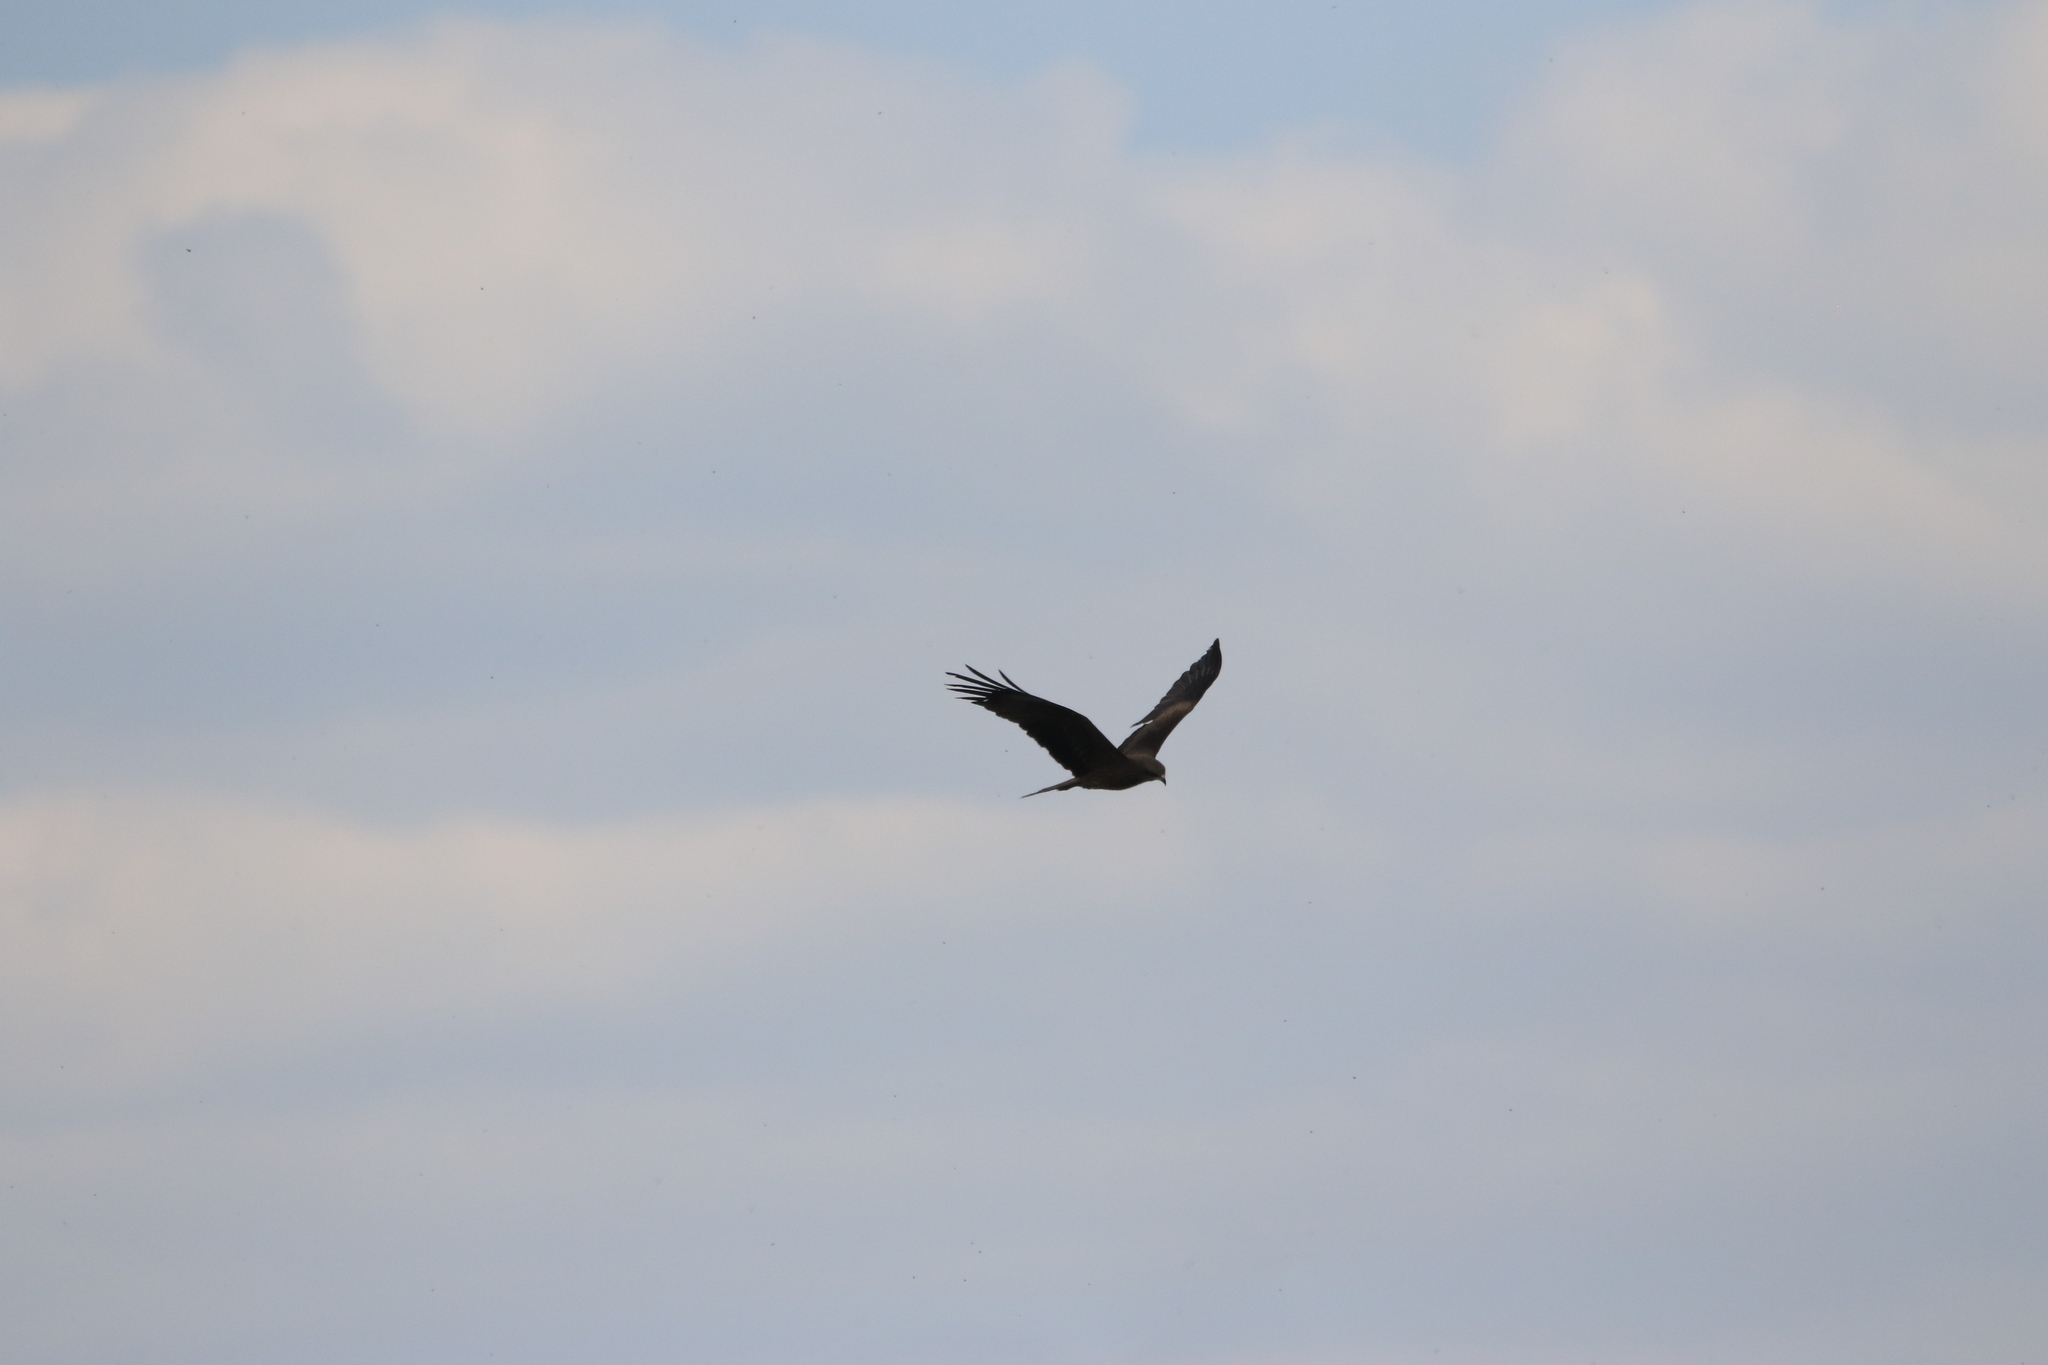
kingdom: Animalia
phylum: Chordata
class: Aves
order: Accipitriformes
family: Accipitridae
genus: Milvus
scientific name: Milvus migrans
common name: Black kite
